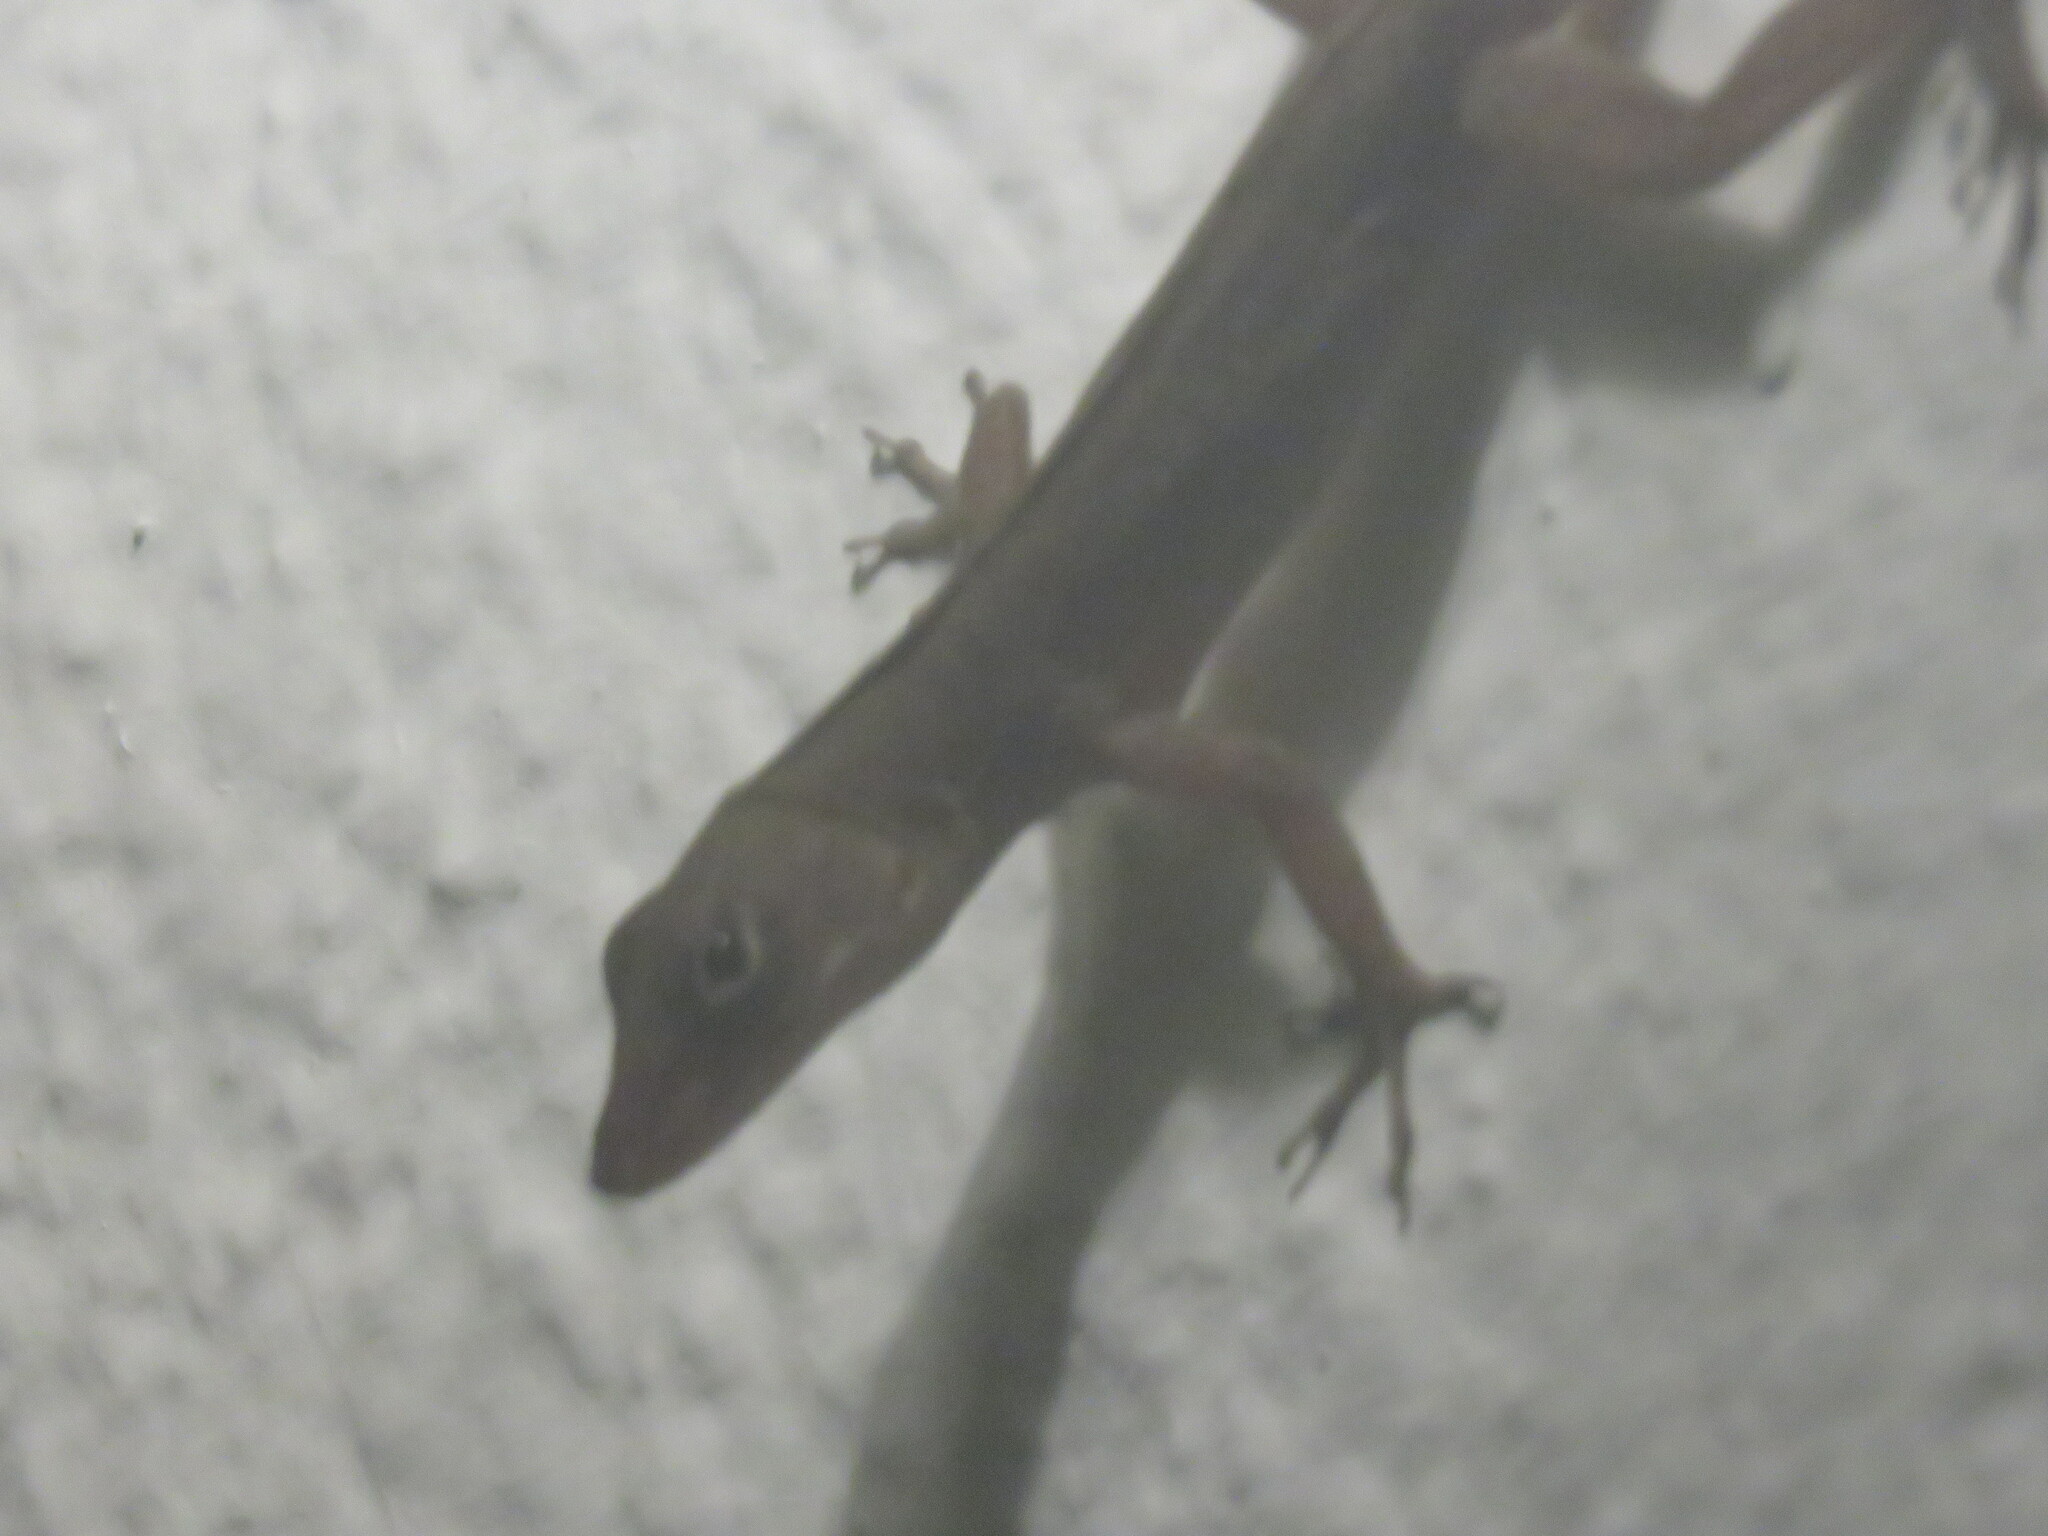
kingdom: Animalia
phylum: Chordata
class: Squamata
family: Dactyloidae
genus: Anolis
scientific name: Anolis sagrei
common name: Brown anole
